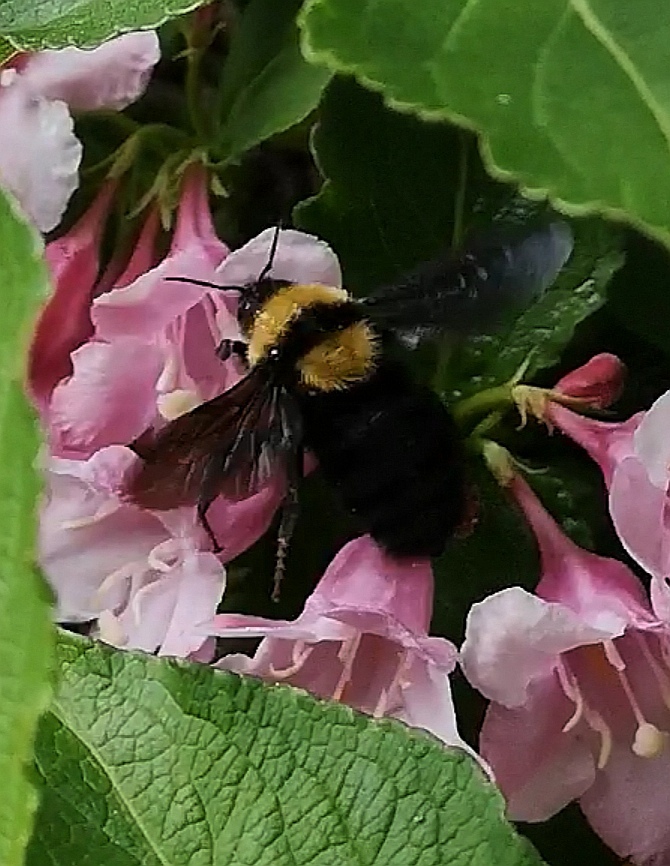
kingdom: Animalia
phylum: Arthropoda
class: Insecta
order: Hymenoptera
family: Apidae
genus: Bombus
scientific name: Bombus argillaceus
